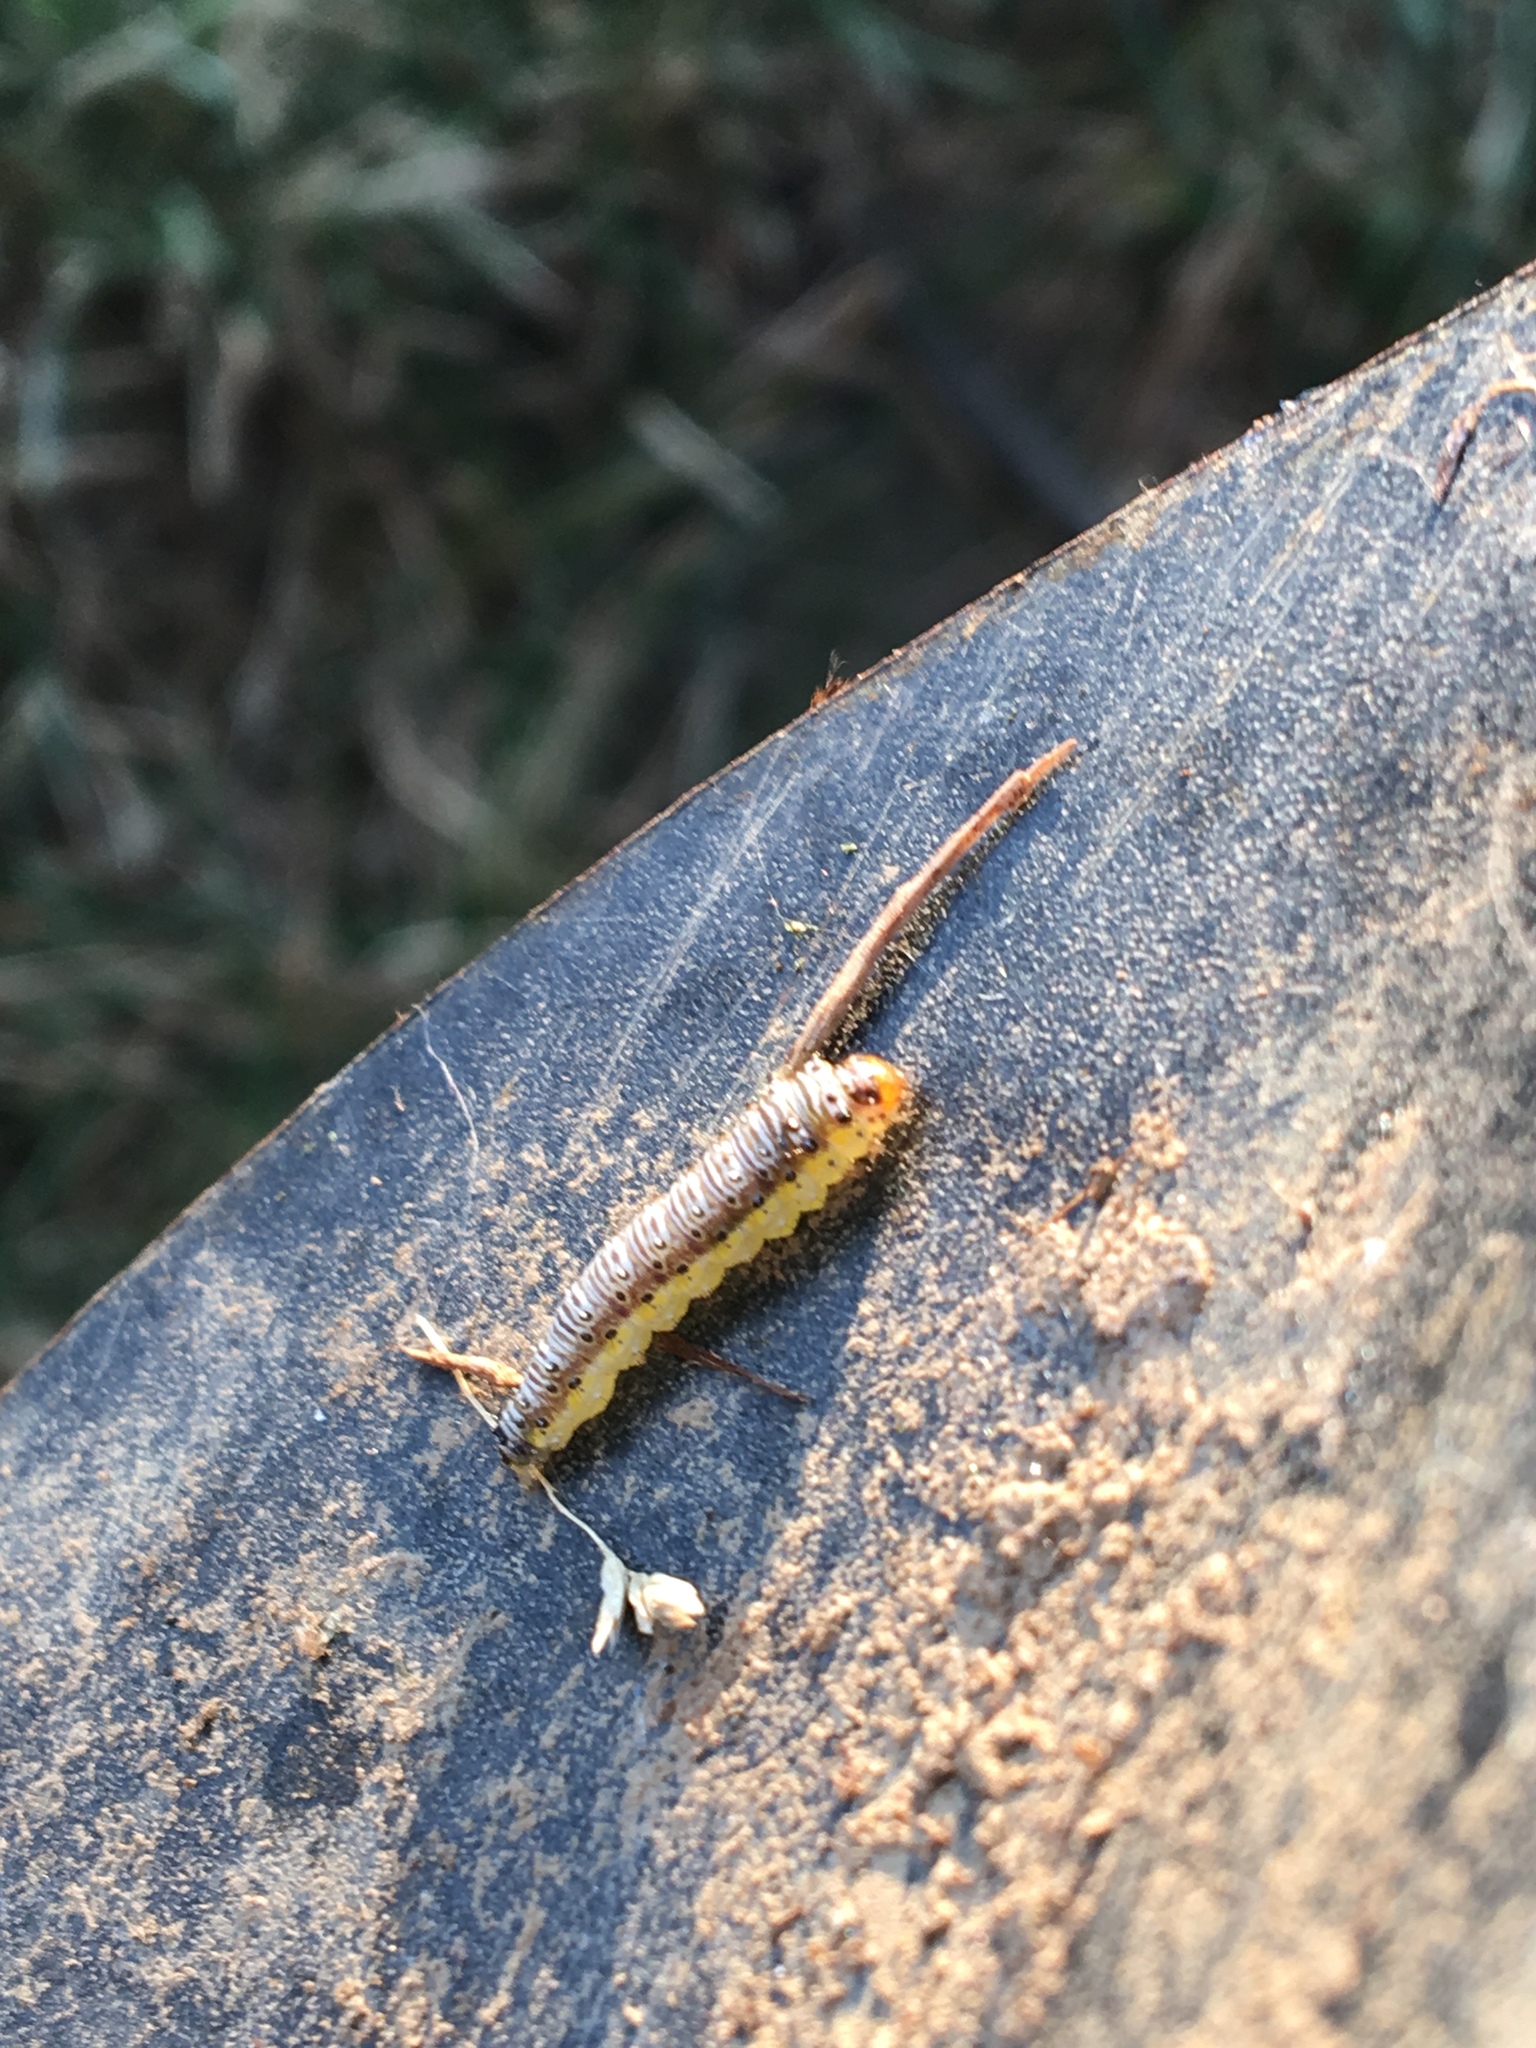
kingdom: Animalia
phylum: Arthropoda
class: Insecta
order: Lepidoptera
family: Crambidae
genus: Evergestis
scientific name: Evergestis rimosalis
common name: Cross-striped cabbageworm moth
